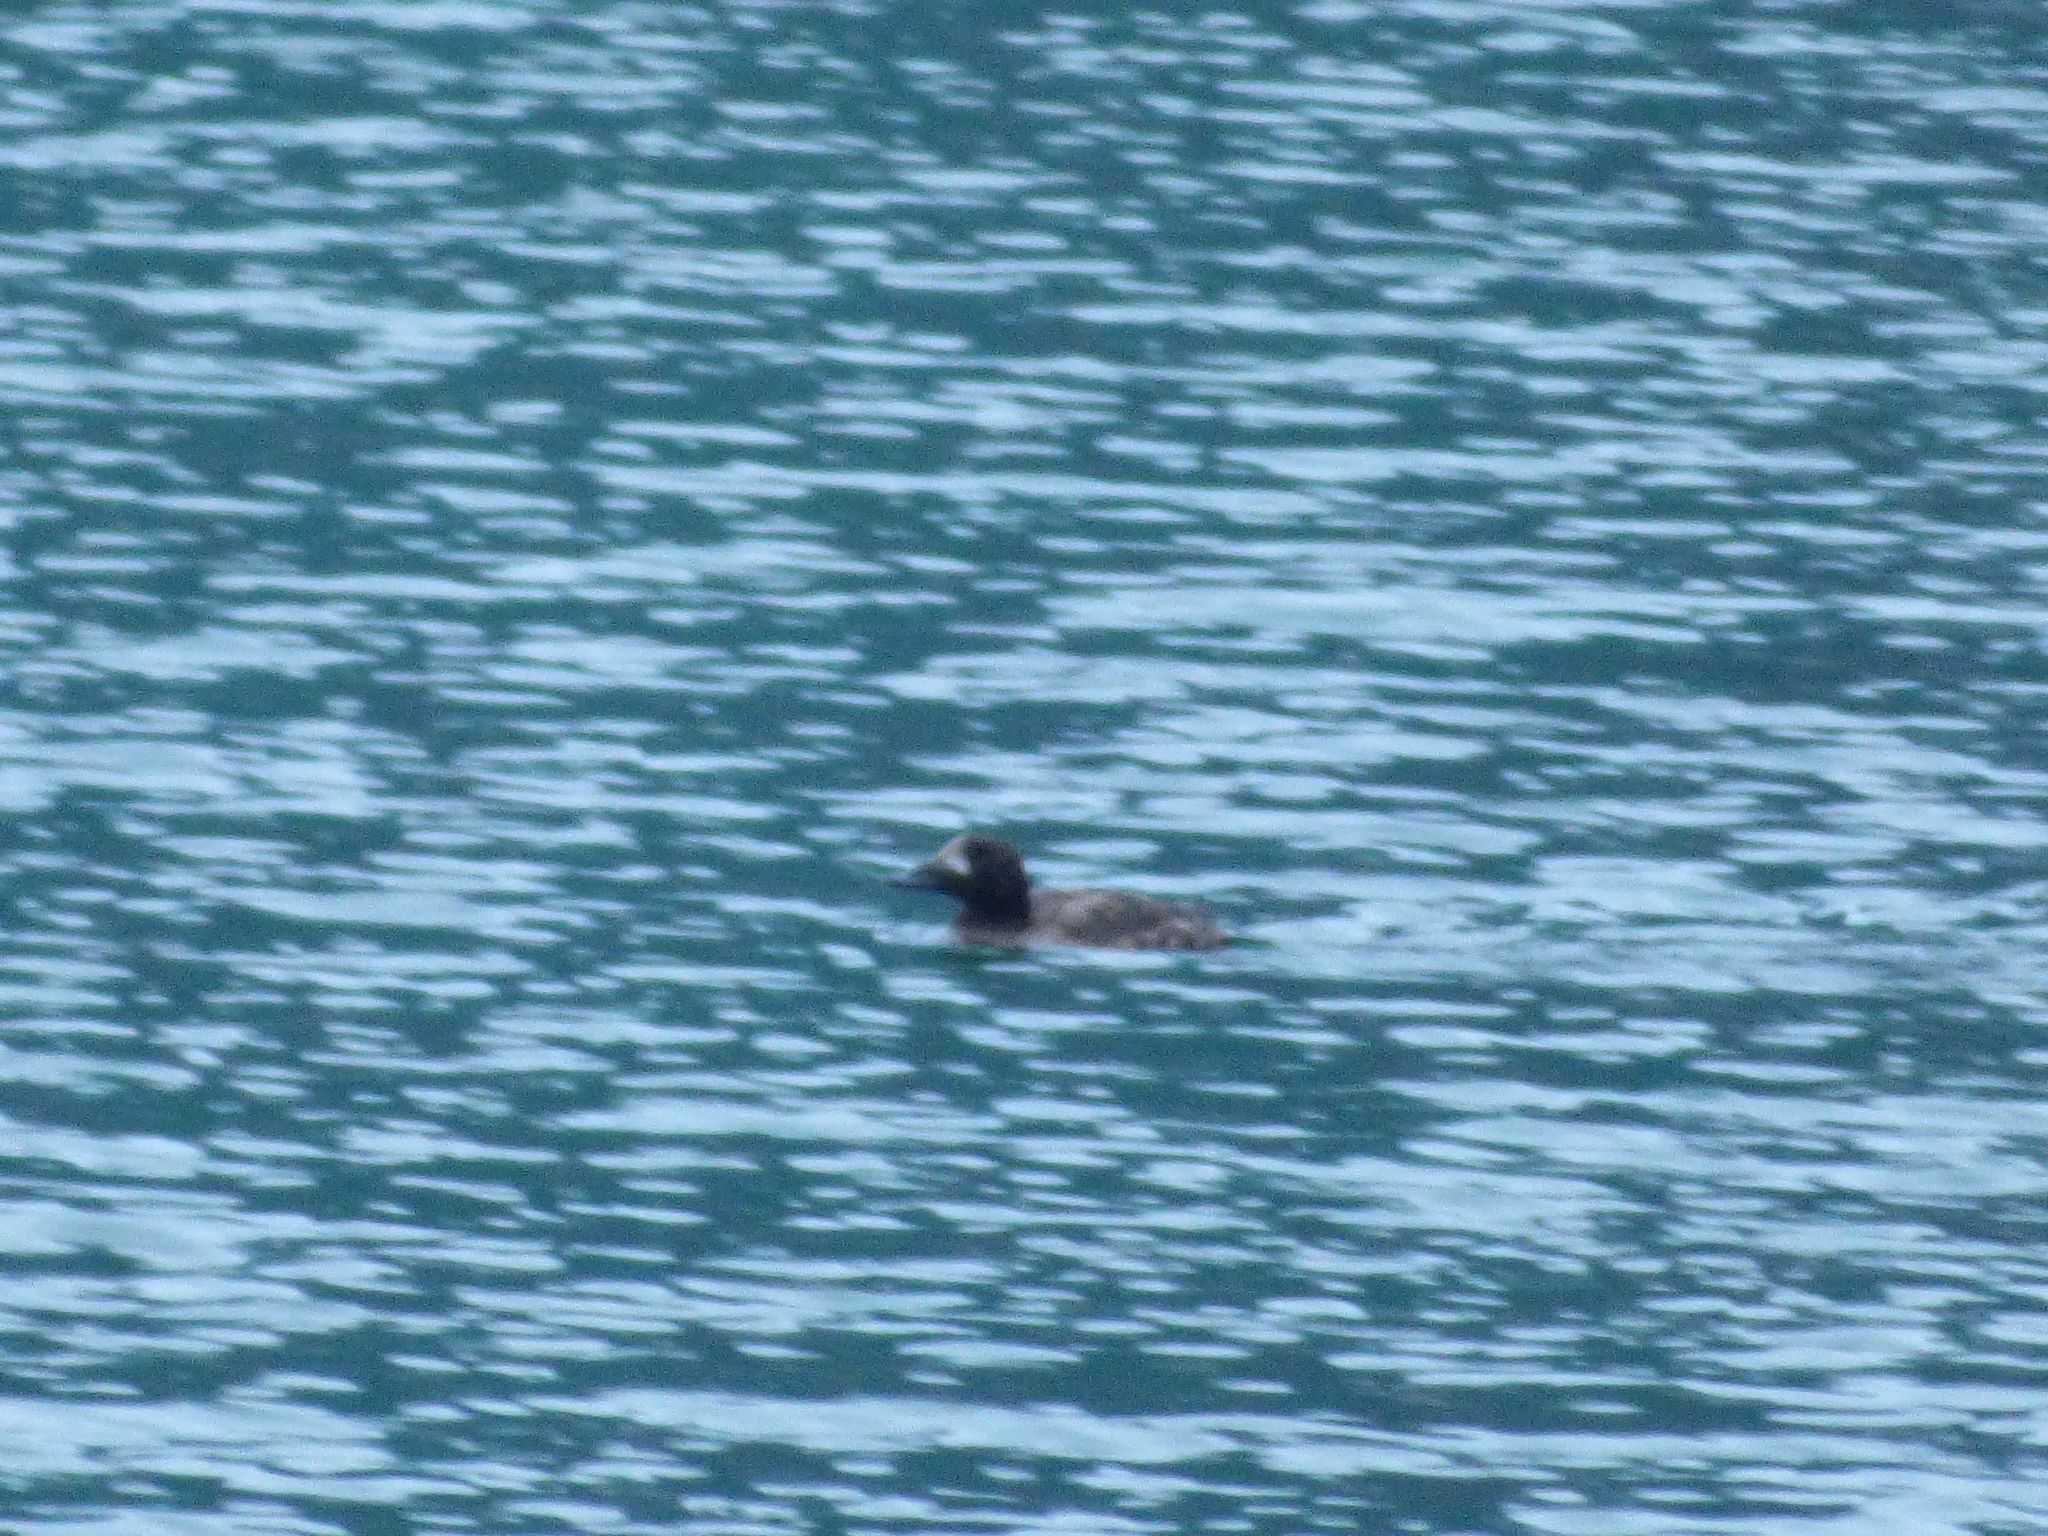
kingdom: Animalia
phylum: Chordata
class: Aves
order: Anseriformes
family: Anatidae
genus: Melanitta
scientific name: Melanitta deglandi
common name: White-winged scoter
